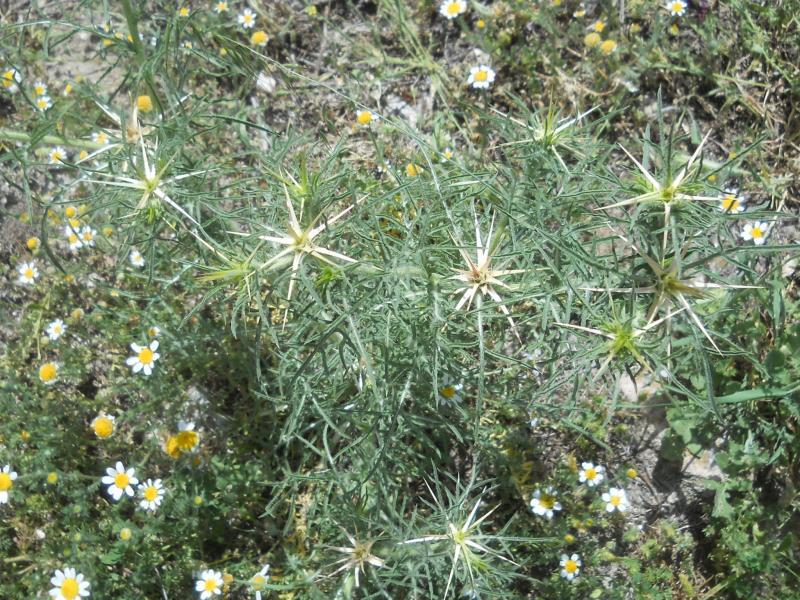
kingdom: Plantae
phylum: Tracheophyta
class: Magnoliopsida
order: Asterales
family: Asteraceae
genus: Centaurea
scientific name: Centaurea calcitrapa
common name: Red star-thistle
